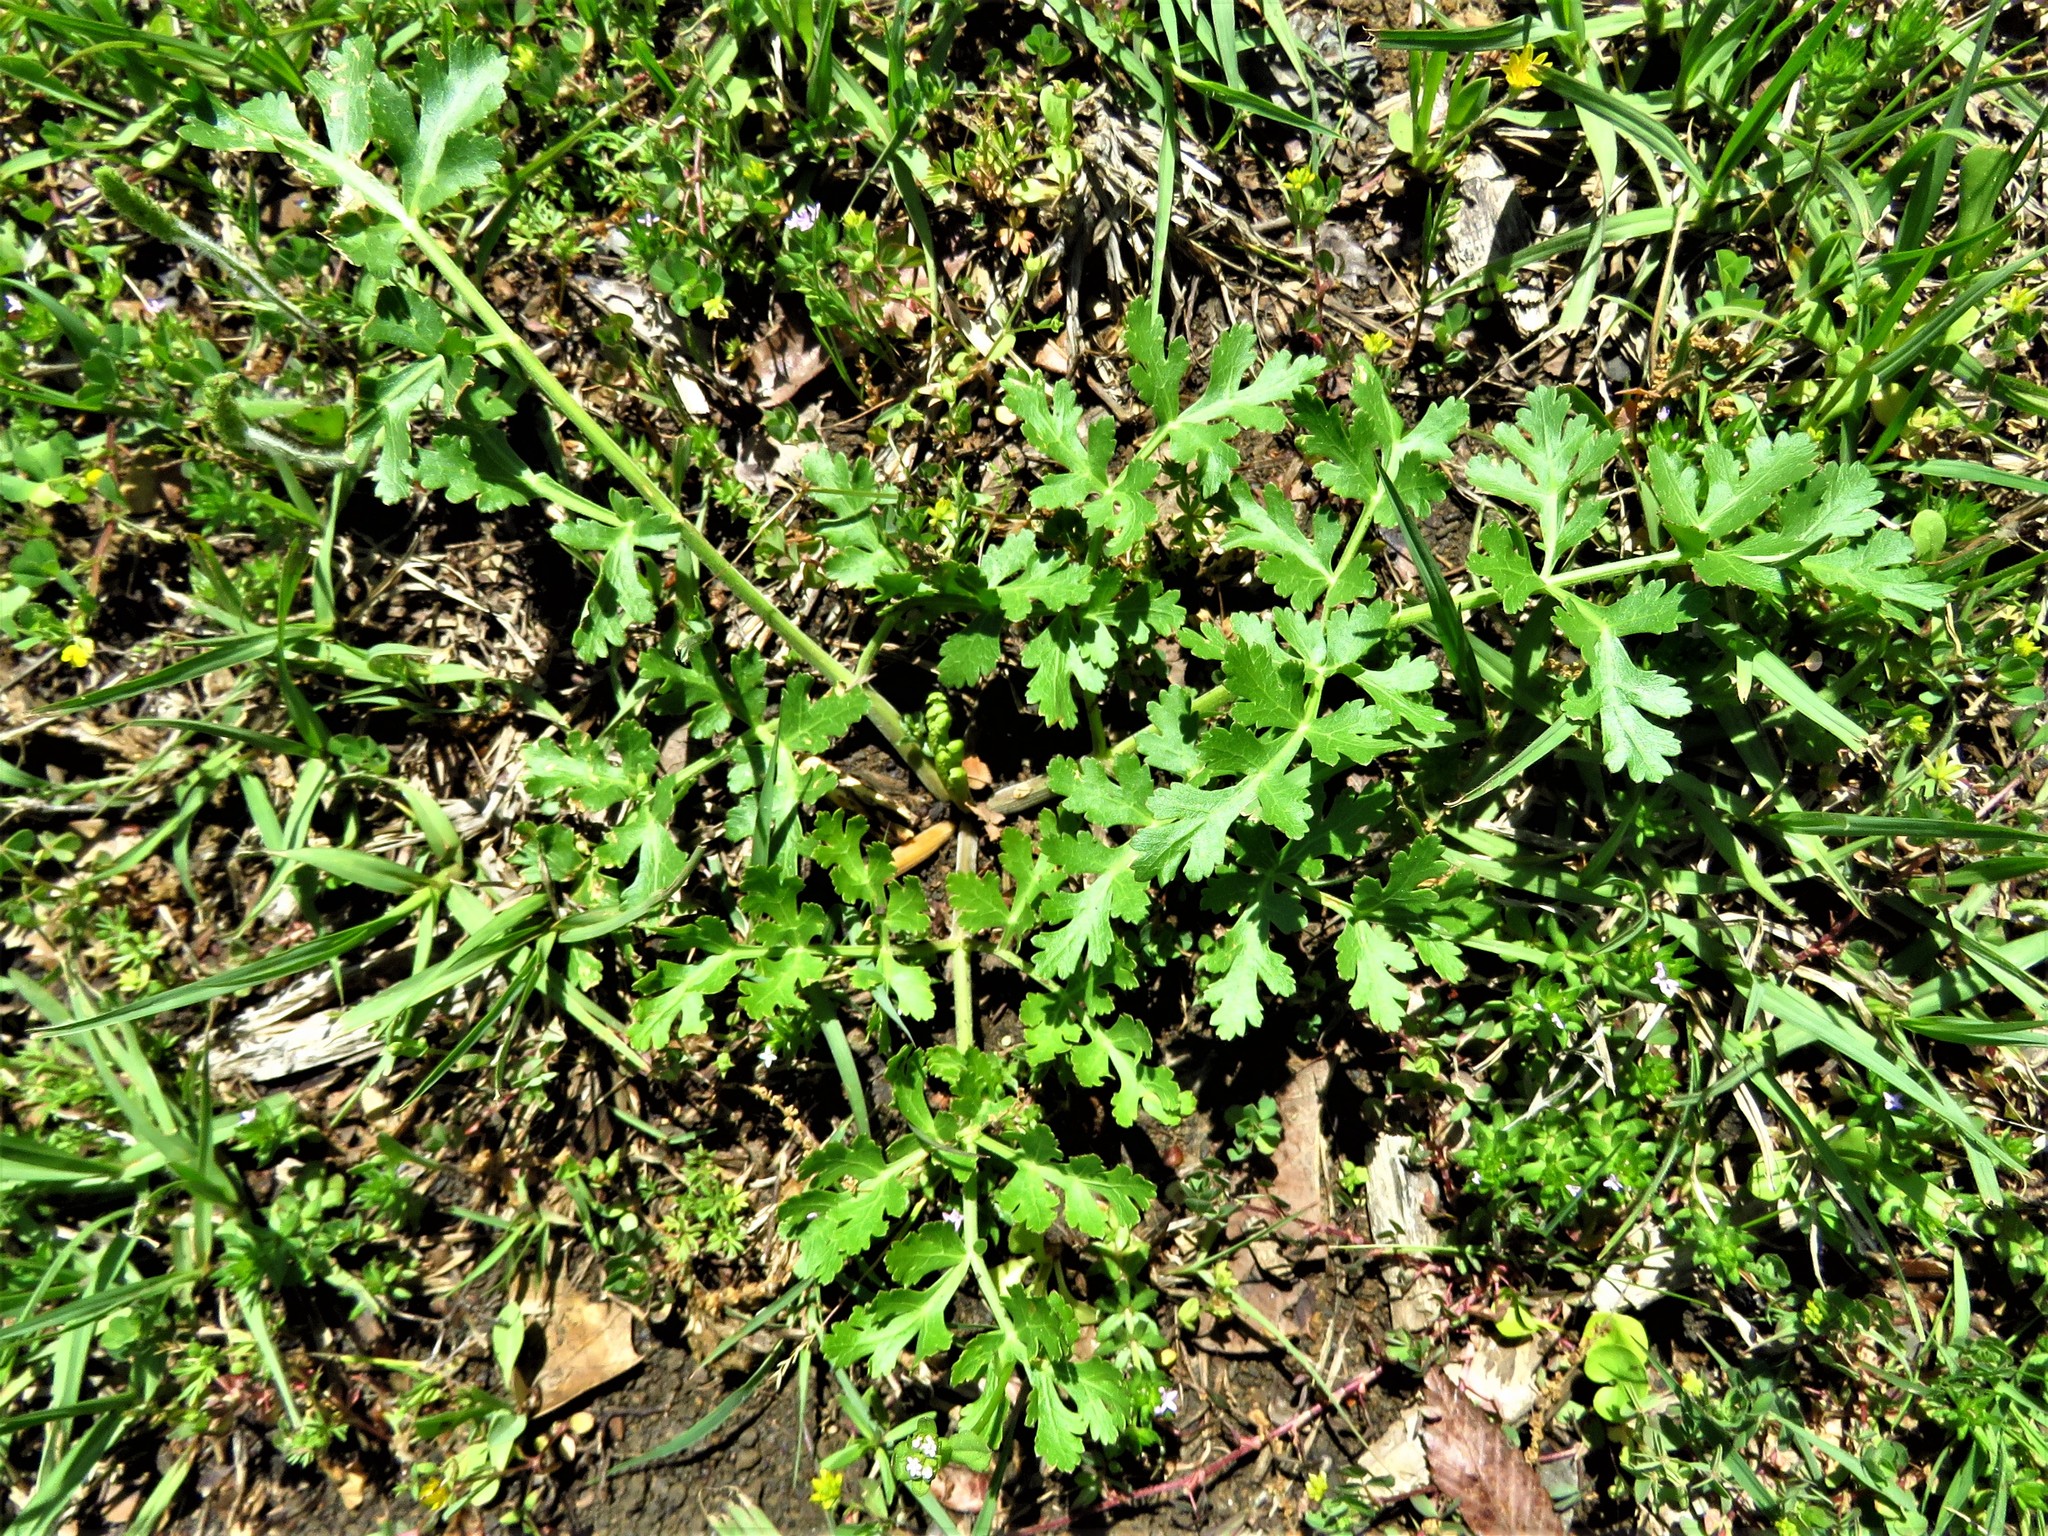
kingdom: Plantae
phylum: Tracheophyta
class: Magnoliopsida
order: Apiales
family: Apiaceae
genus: Polytaenia
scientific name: Polytaenia texana
